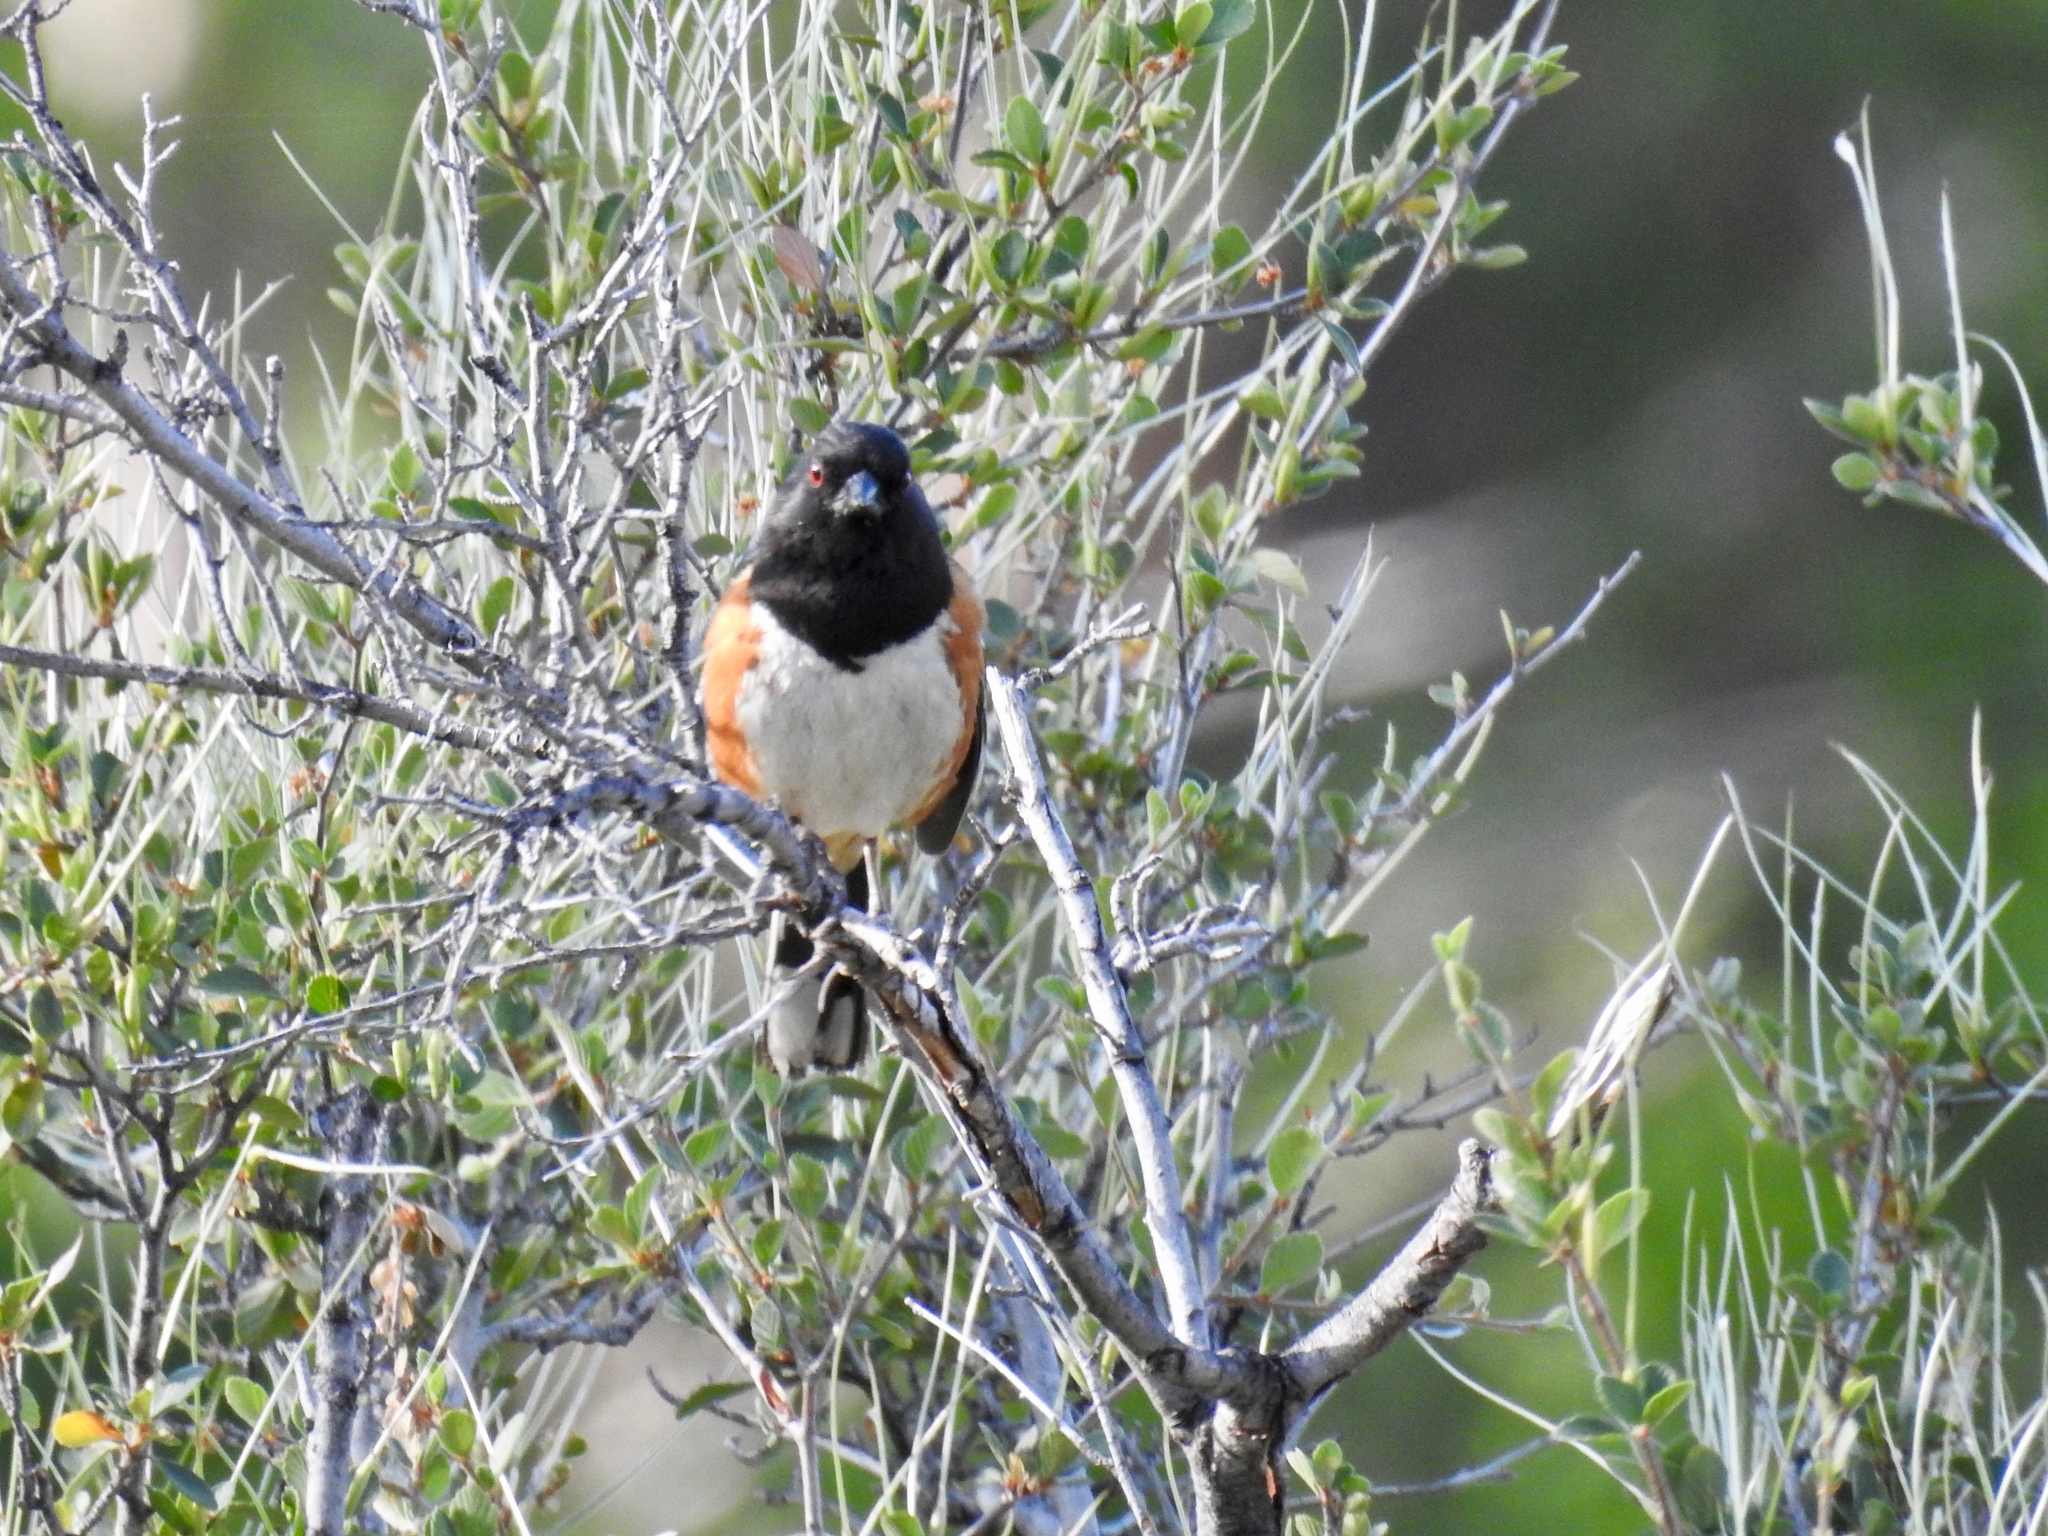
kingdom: Animalia
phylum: Chordata
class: Aves
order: Passeriformes
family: Passerellidae
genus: Pipilo
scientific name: Pipilo maculatus
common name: Spotted towhee
